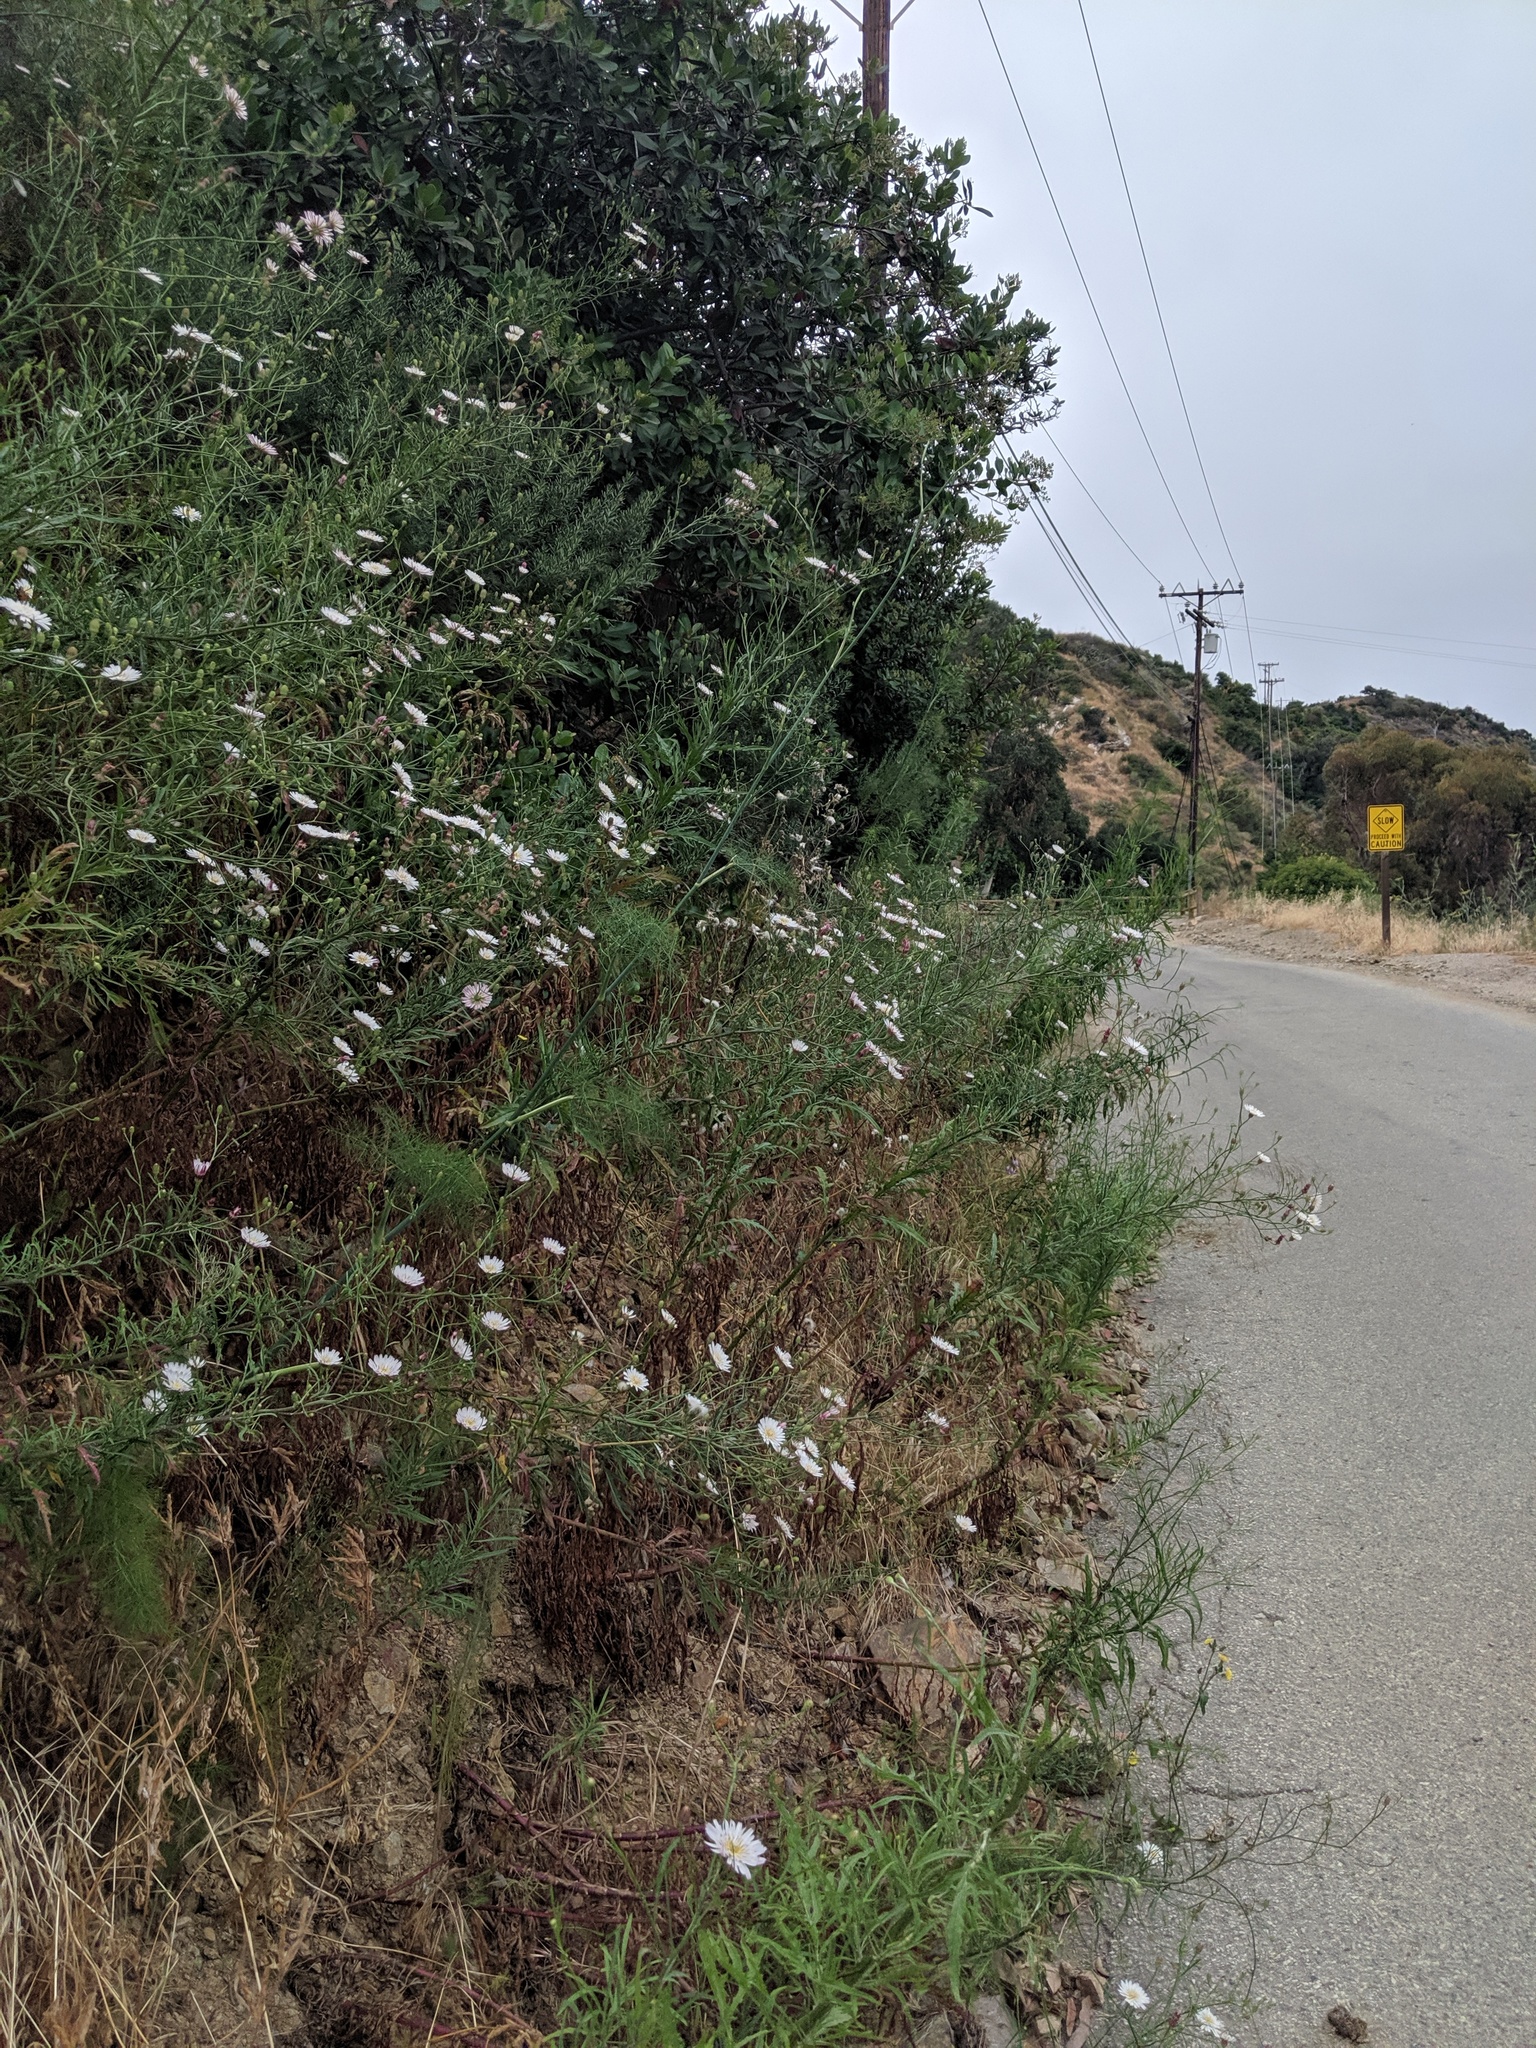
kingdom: Plantae
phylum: Tracheophyta
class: Magnoliopsida
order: Asterales
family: Asteraceae
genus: Malacothrix
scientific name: Malacothrix saxatilis
